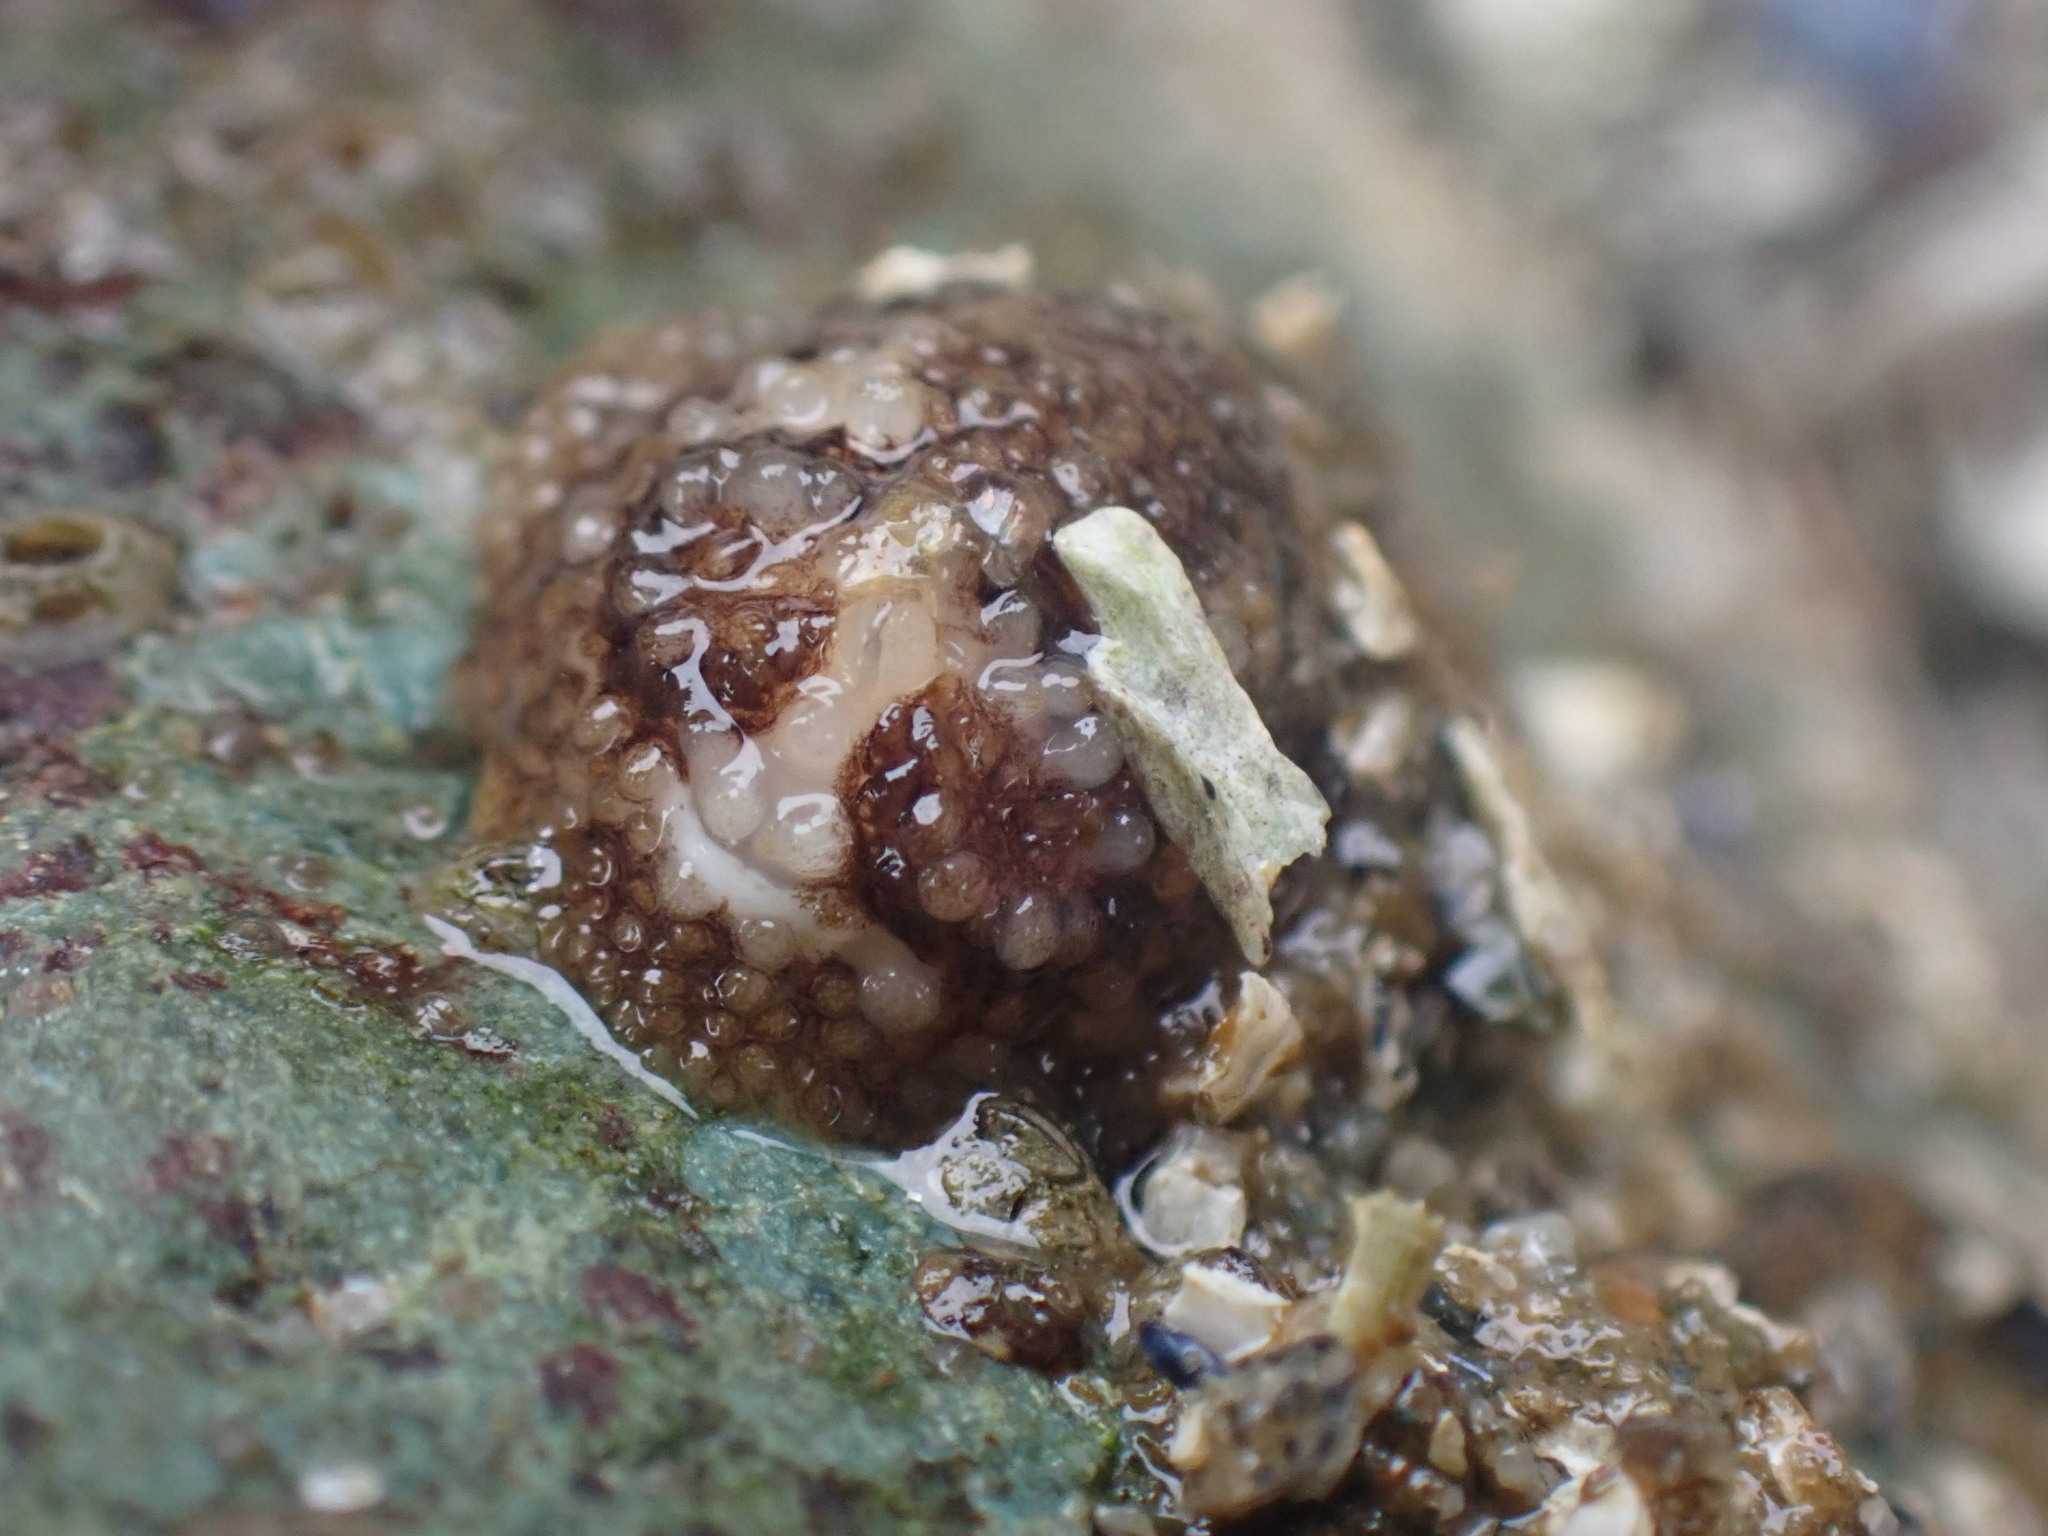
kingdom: Animalia
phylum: Mollusca
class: Gastropoda
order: Nudibranchia
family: Onchidorididae
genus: Onchidoris
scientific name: Onchidoris bilamellata
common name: Barnacle-eating onchidoris
